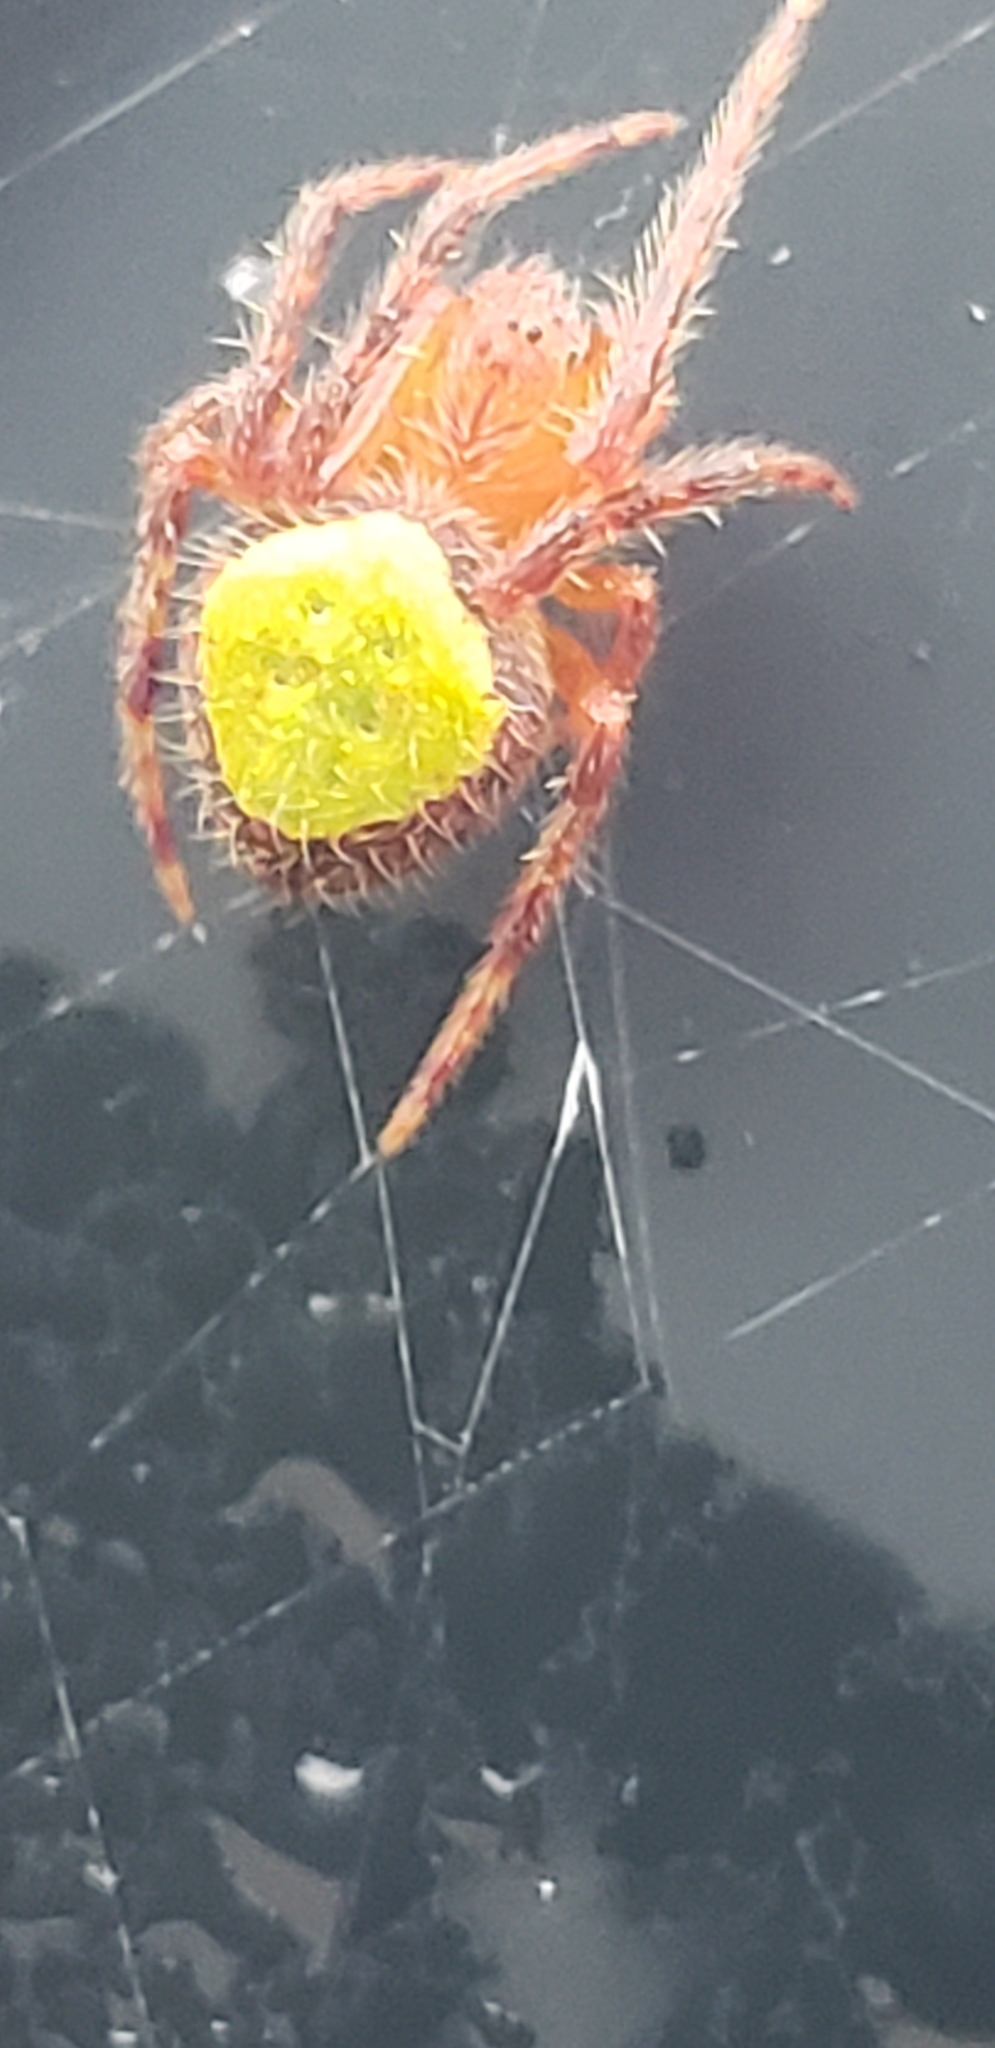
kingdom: Animalia
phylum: Arthropoda
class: Arachnida
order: Araneae
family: Araneidae
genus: Eriophora
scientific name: Eriophora ravilla
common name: Orb weavers
